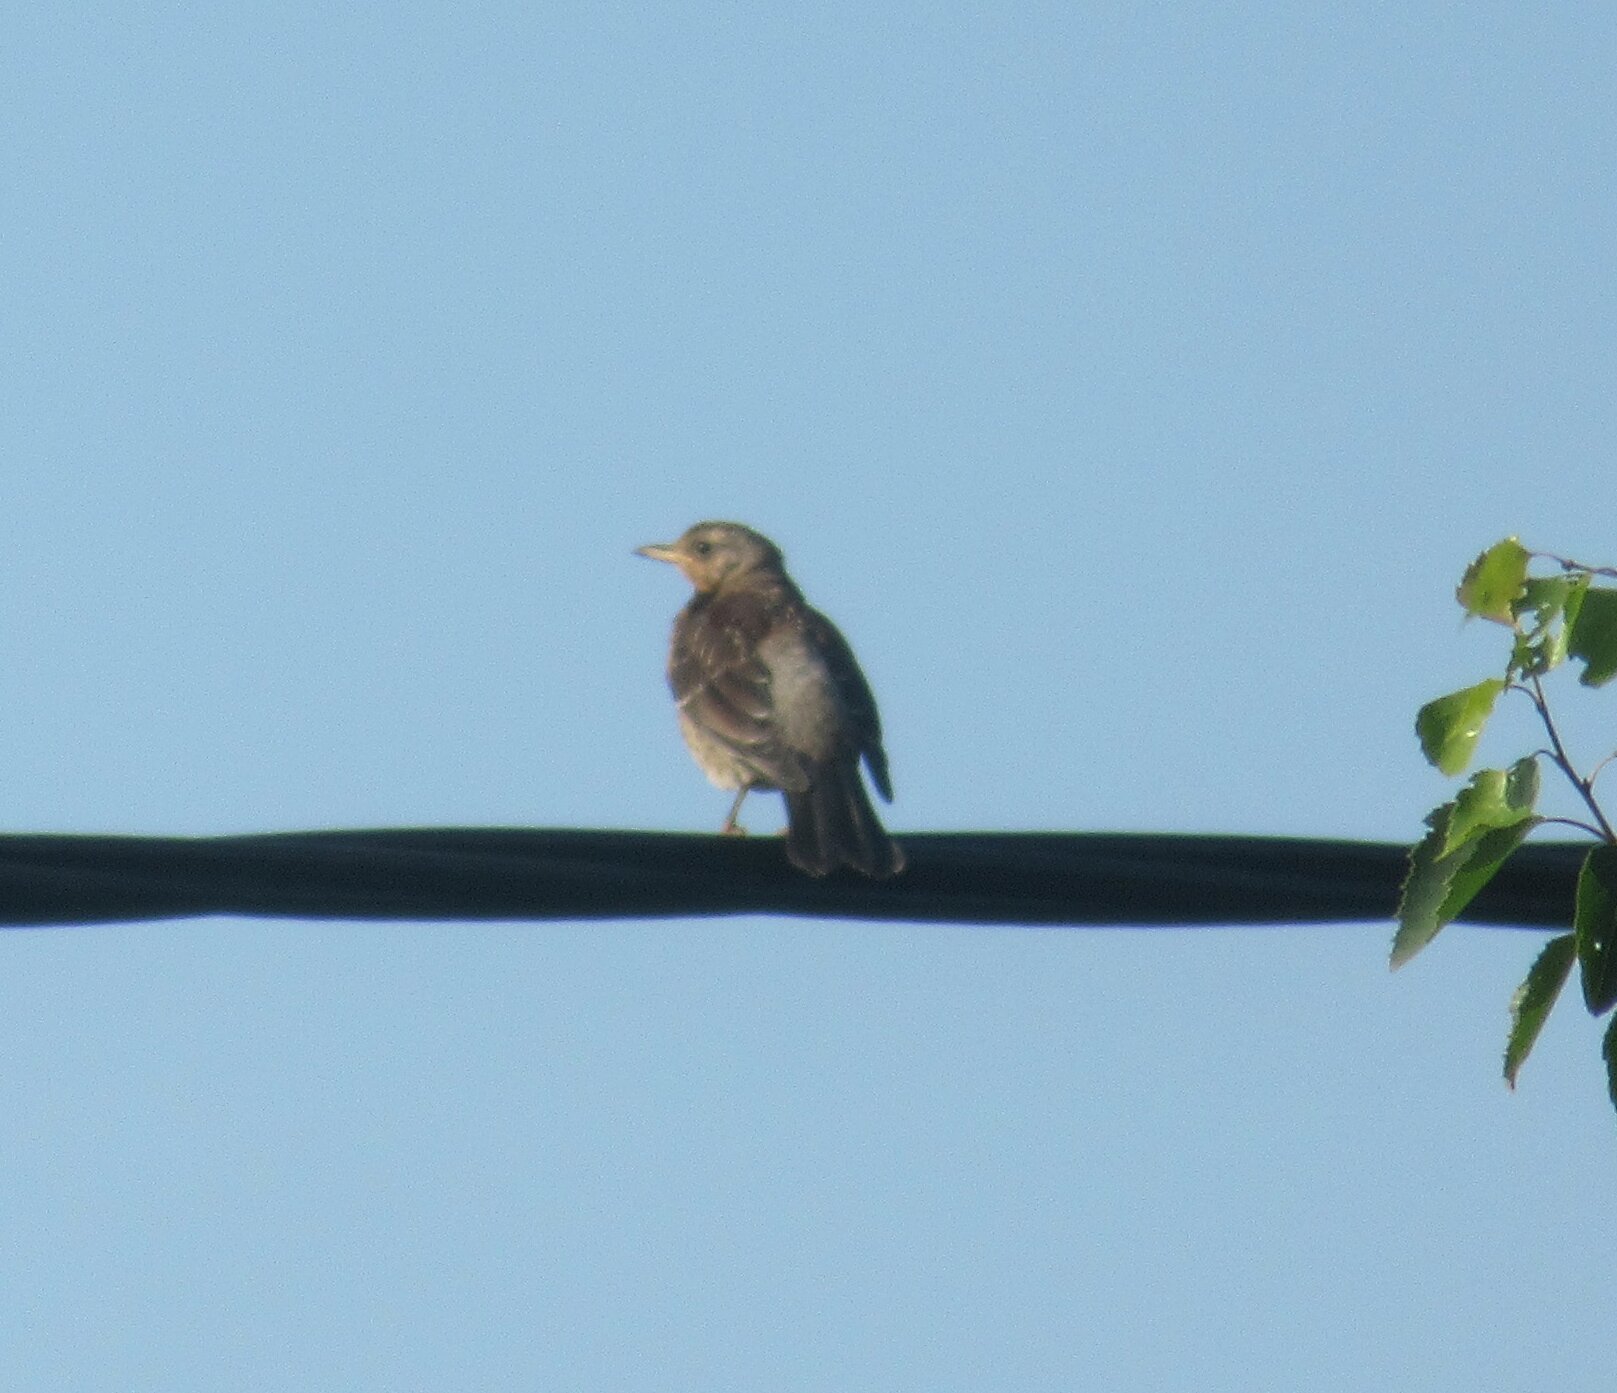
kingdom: Animalia
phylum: Chordata
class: Aves
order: Passeriformes
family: Turdidae
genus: Turdus
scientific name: Turdus pilaris
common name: Fieldfare
